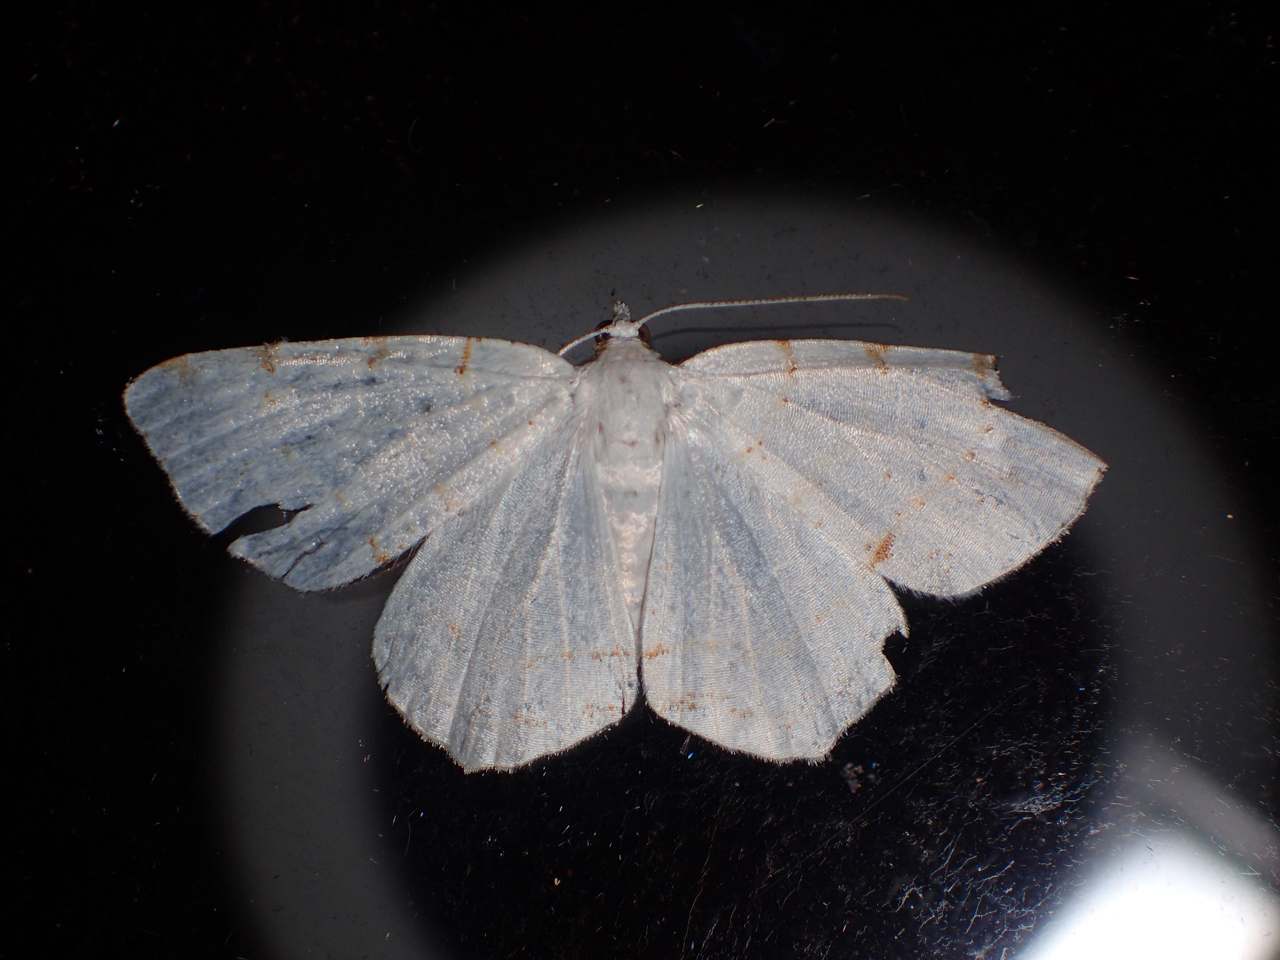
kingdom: Animalia
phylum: Arthropoda
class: Insecta
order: Lepidoptera
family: Geometridae
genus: Macaria
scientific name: Macaria pustularia
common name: Lesser maple spanworm moth
